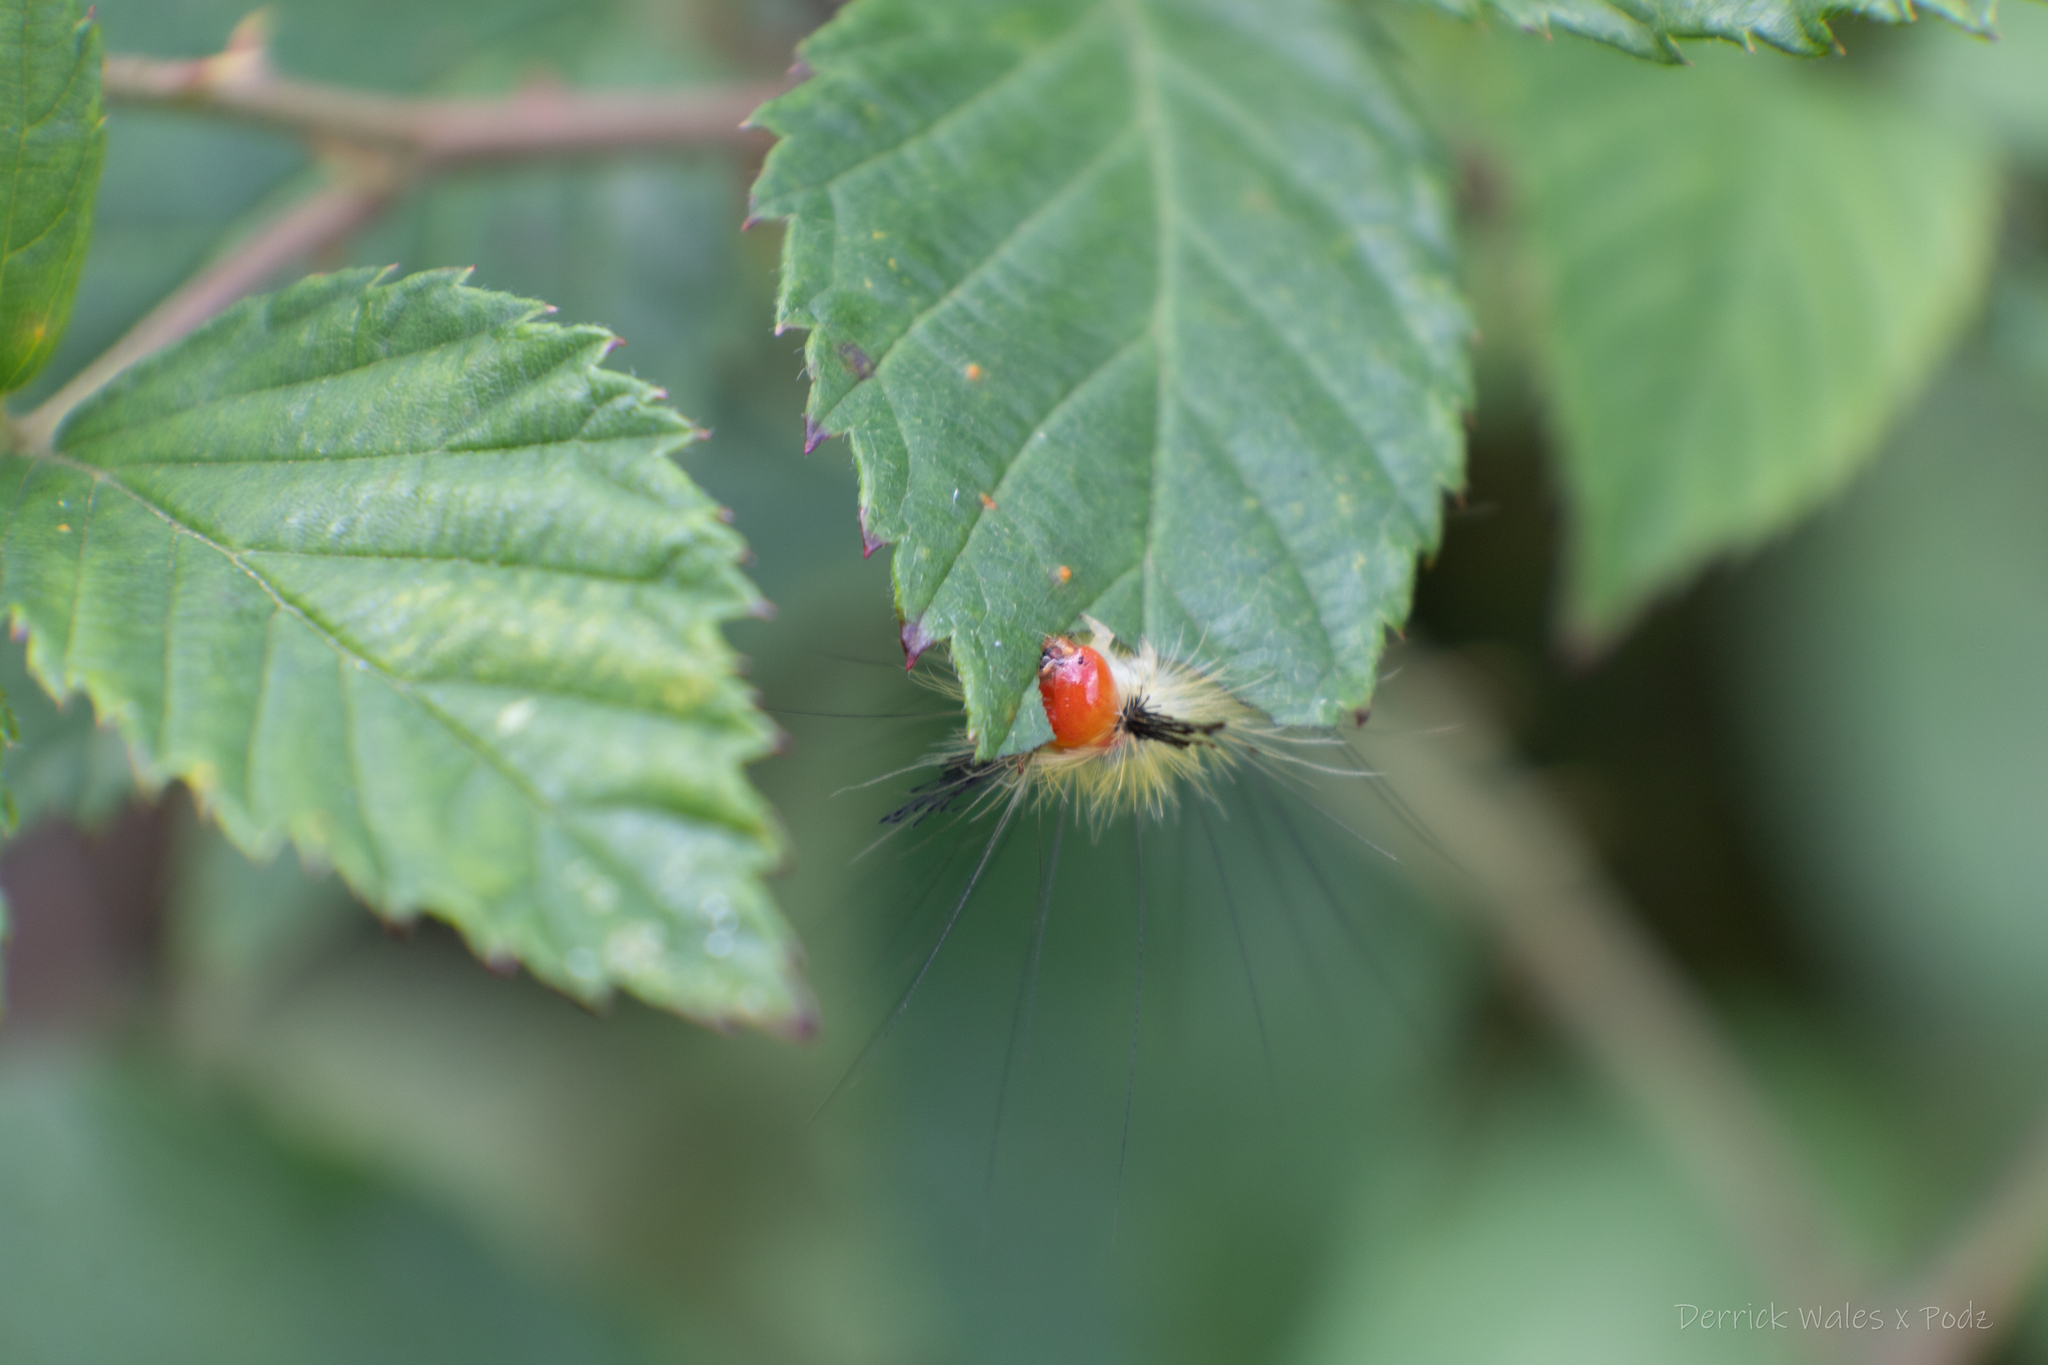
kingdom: Animalia
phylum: Arthropoda
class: Insecta
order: Lepidoptera
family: Erebidae
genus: Orgyia
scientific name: Orgyia leucostigma
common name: White-marked tussock moth
